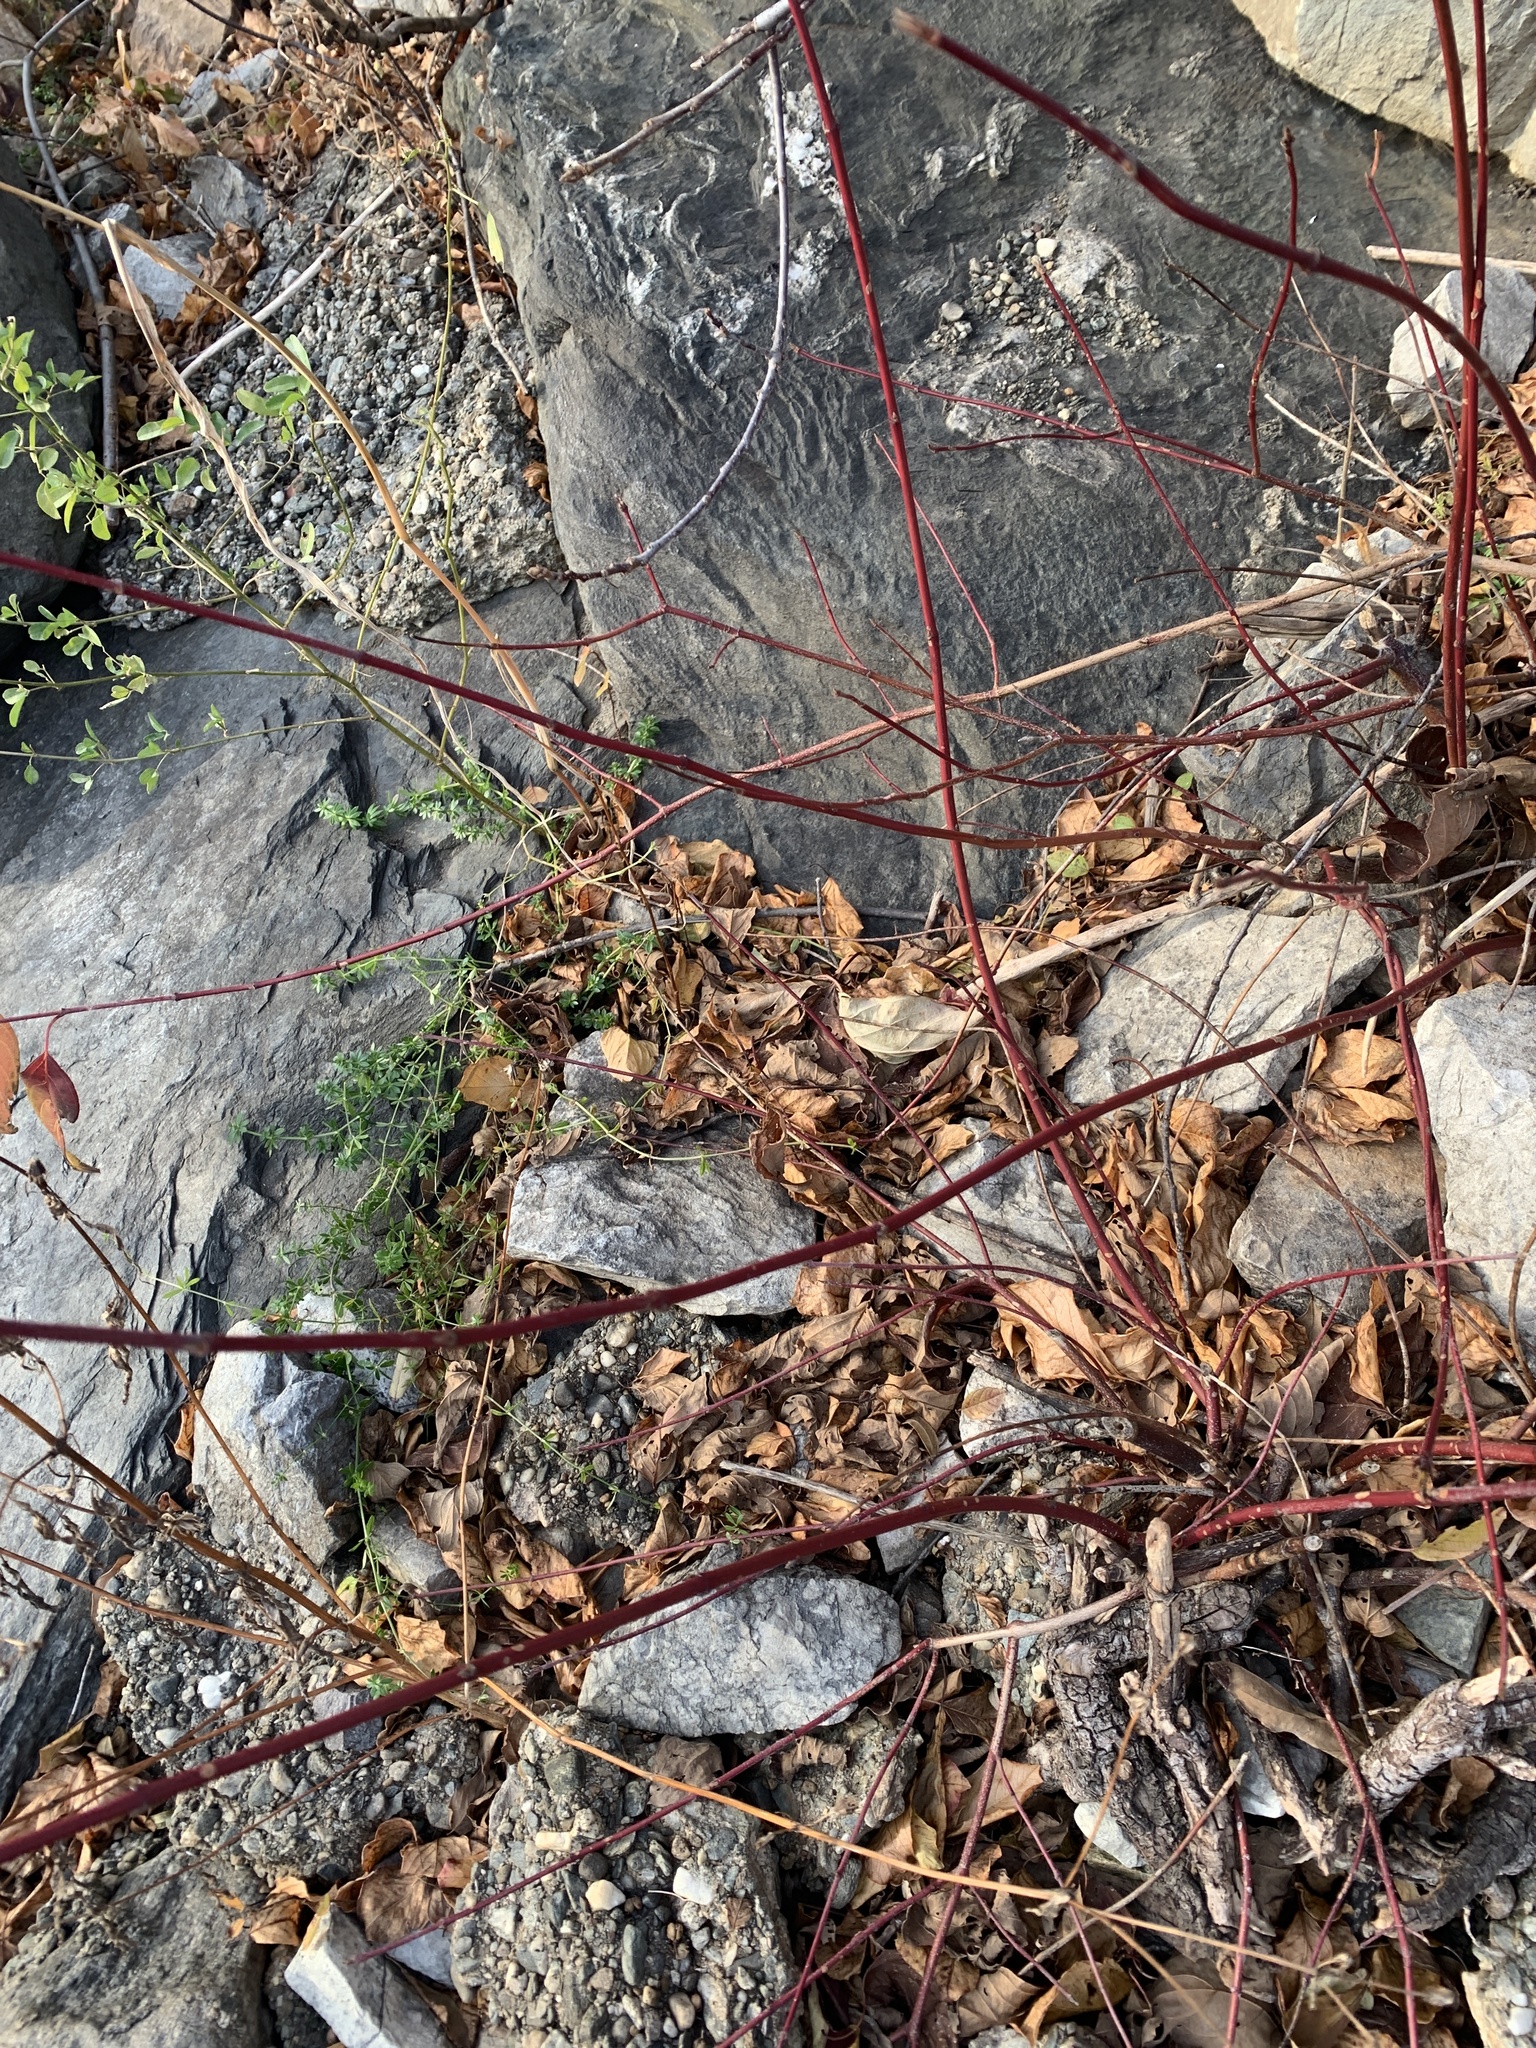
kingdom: Plantae
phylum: Tracheophyta
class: Magnoliopsida
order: Cornales
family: Cornaceae
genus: Cornus
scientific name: Cornus sericea
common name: Red-osier dogwood
